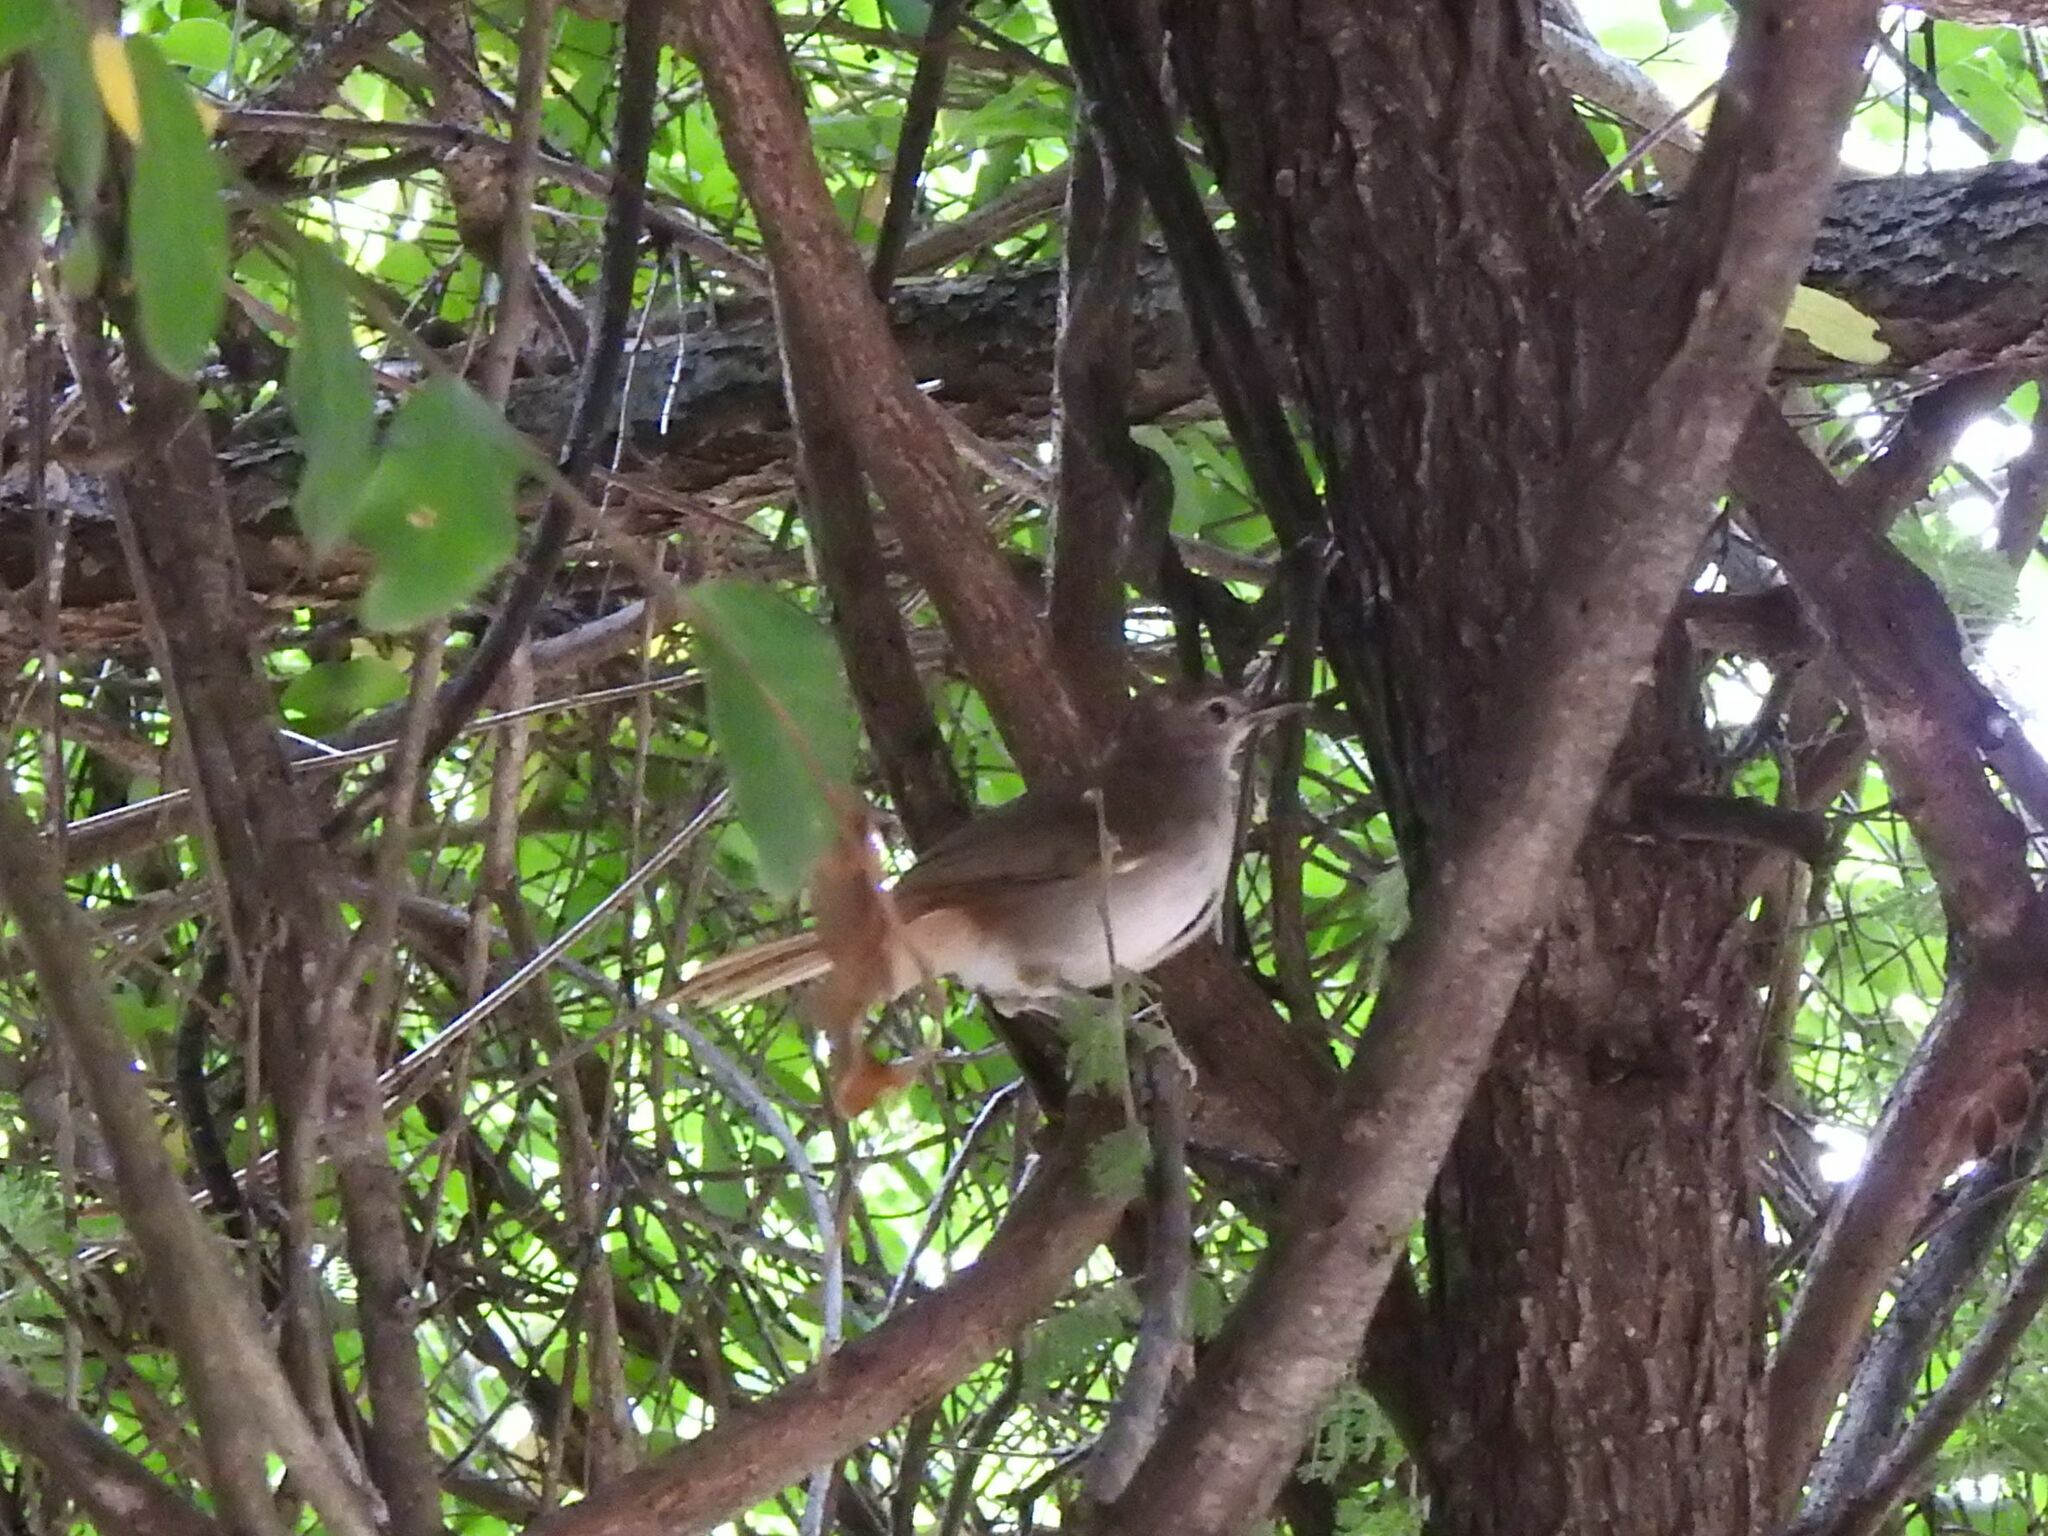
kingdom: Animalia
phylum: Chordata
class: Aves
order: Passeriformes
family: Pycnonotidae
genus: Phyllastrephus
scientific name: Phyllastrephus terrestris
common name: Terrestrial brownbul
